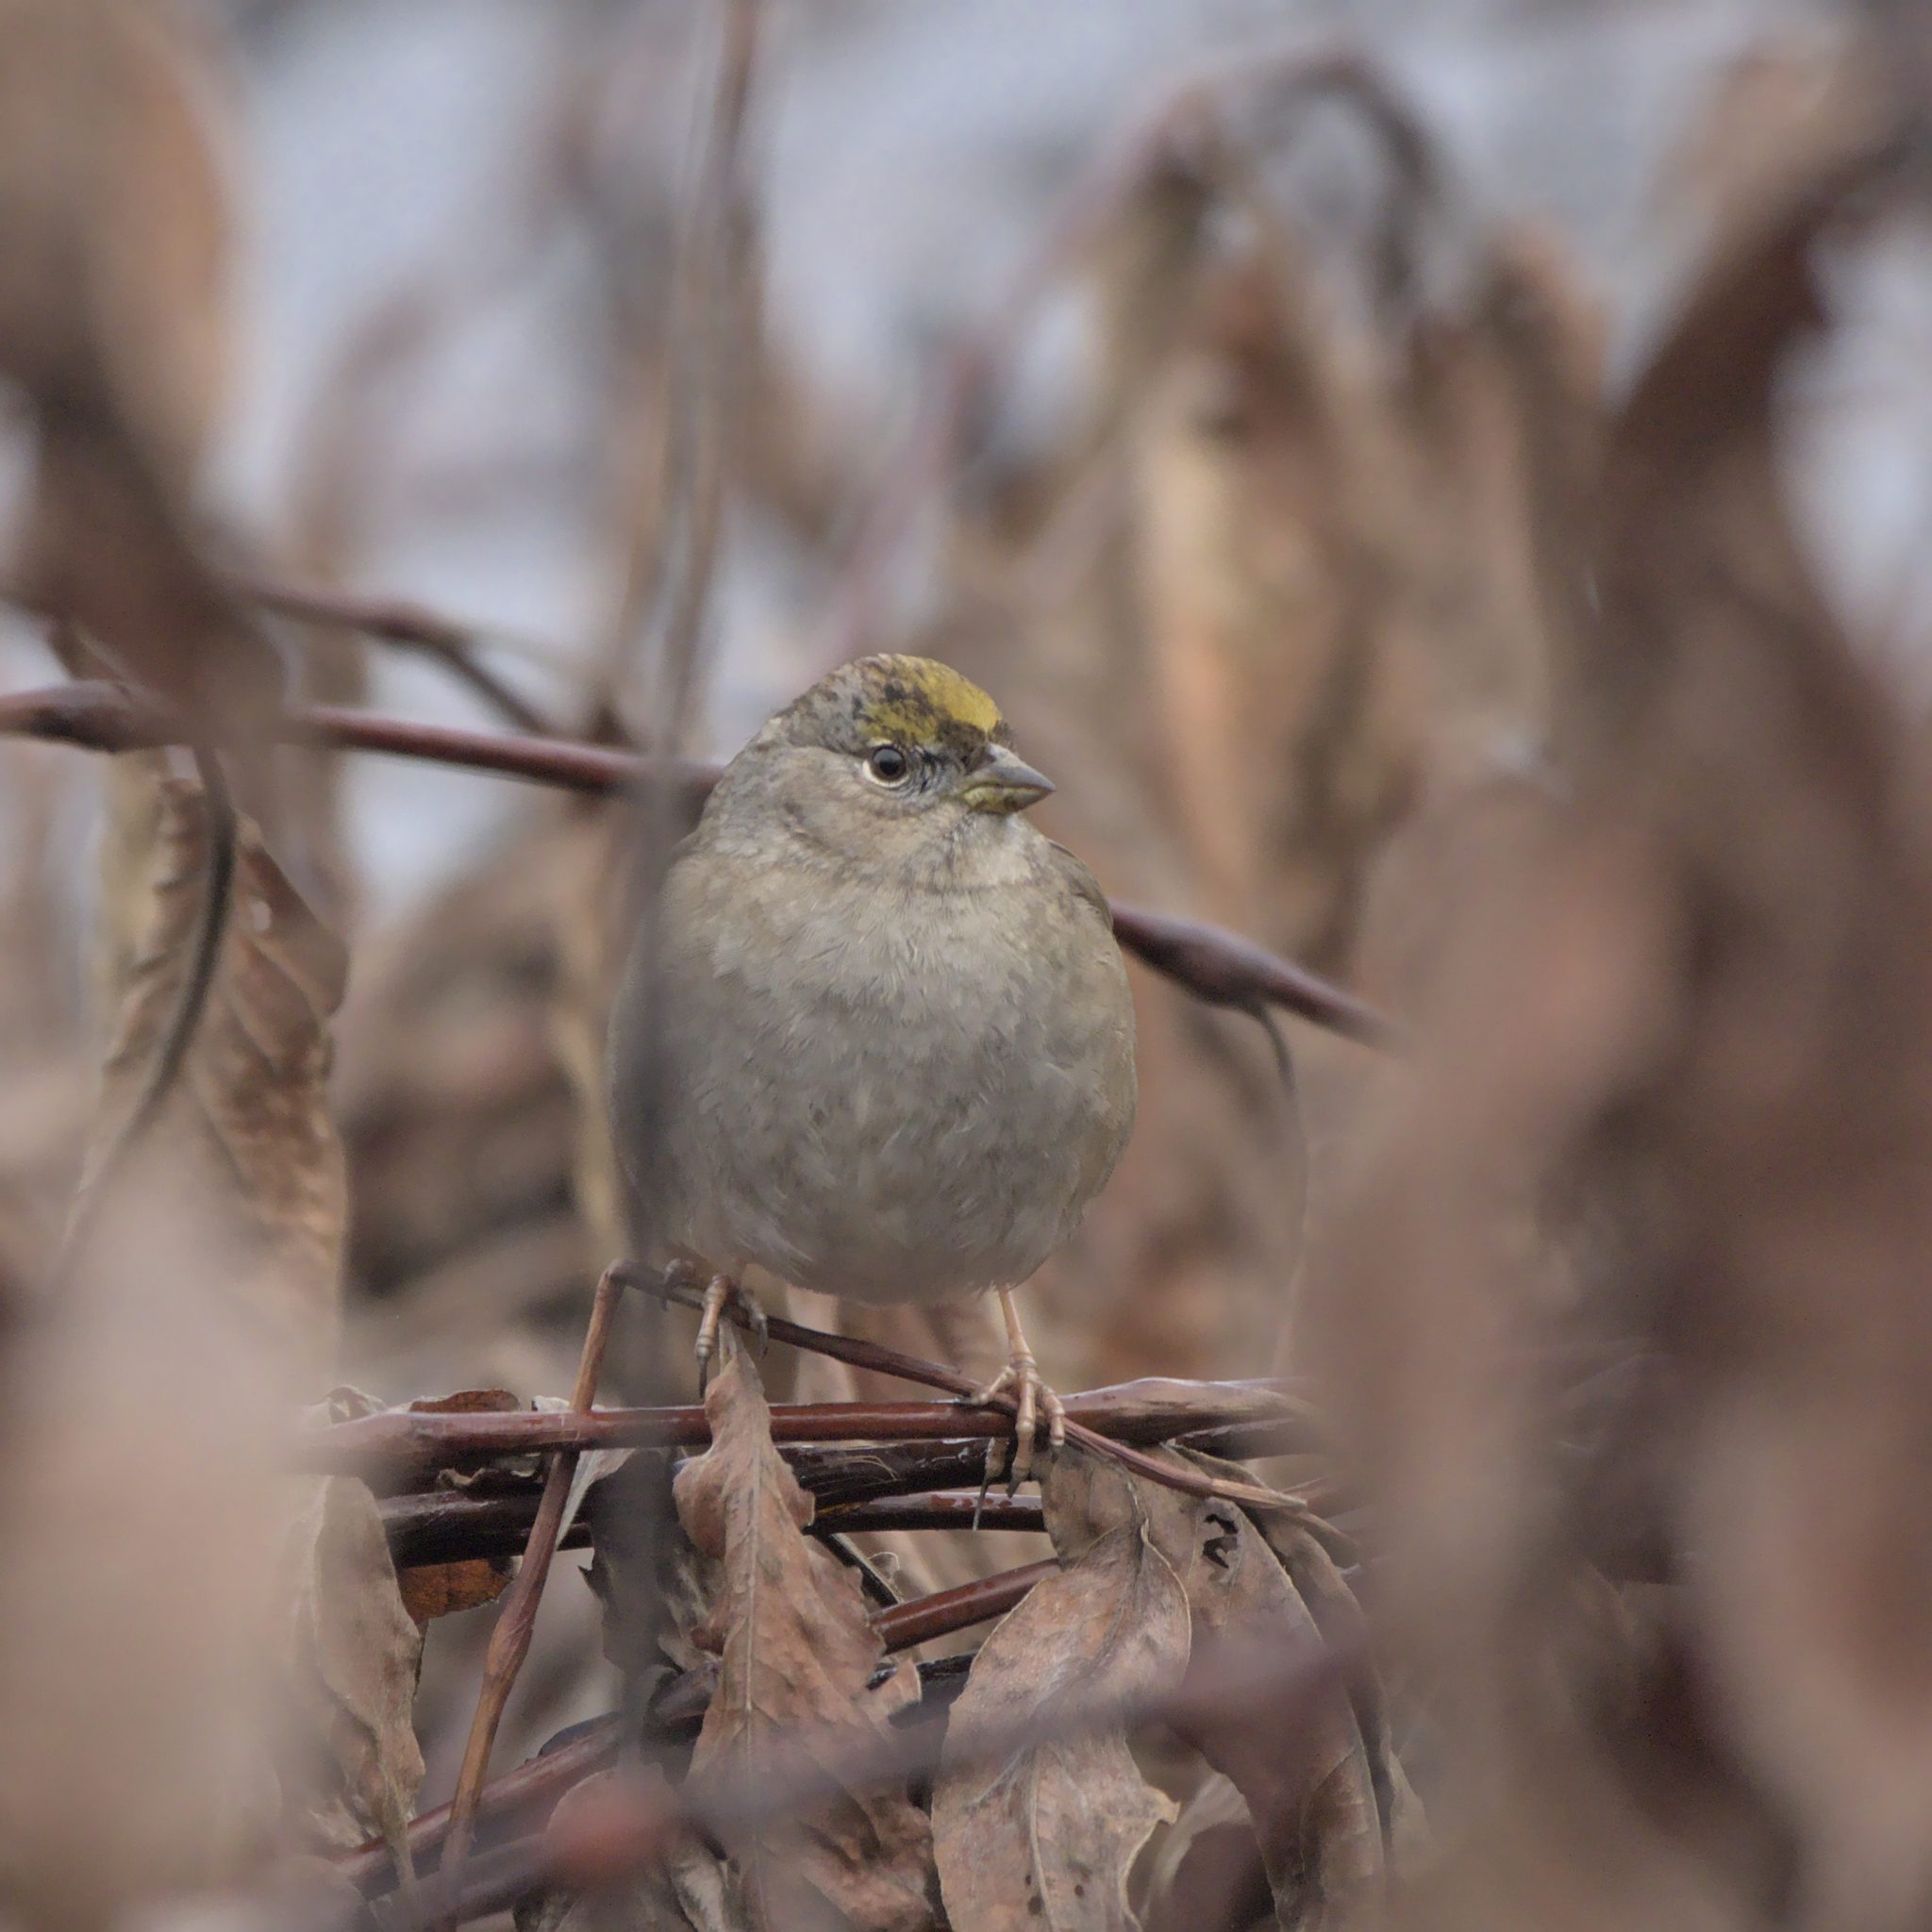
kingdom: Animalia
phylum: Chordata
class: Aves
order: Passeriformes
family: Passerellidae
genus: Zonotrichia
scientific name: Zonotrichia atricapilla
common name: Golden-crowned sparrow
